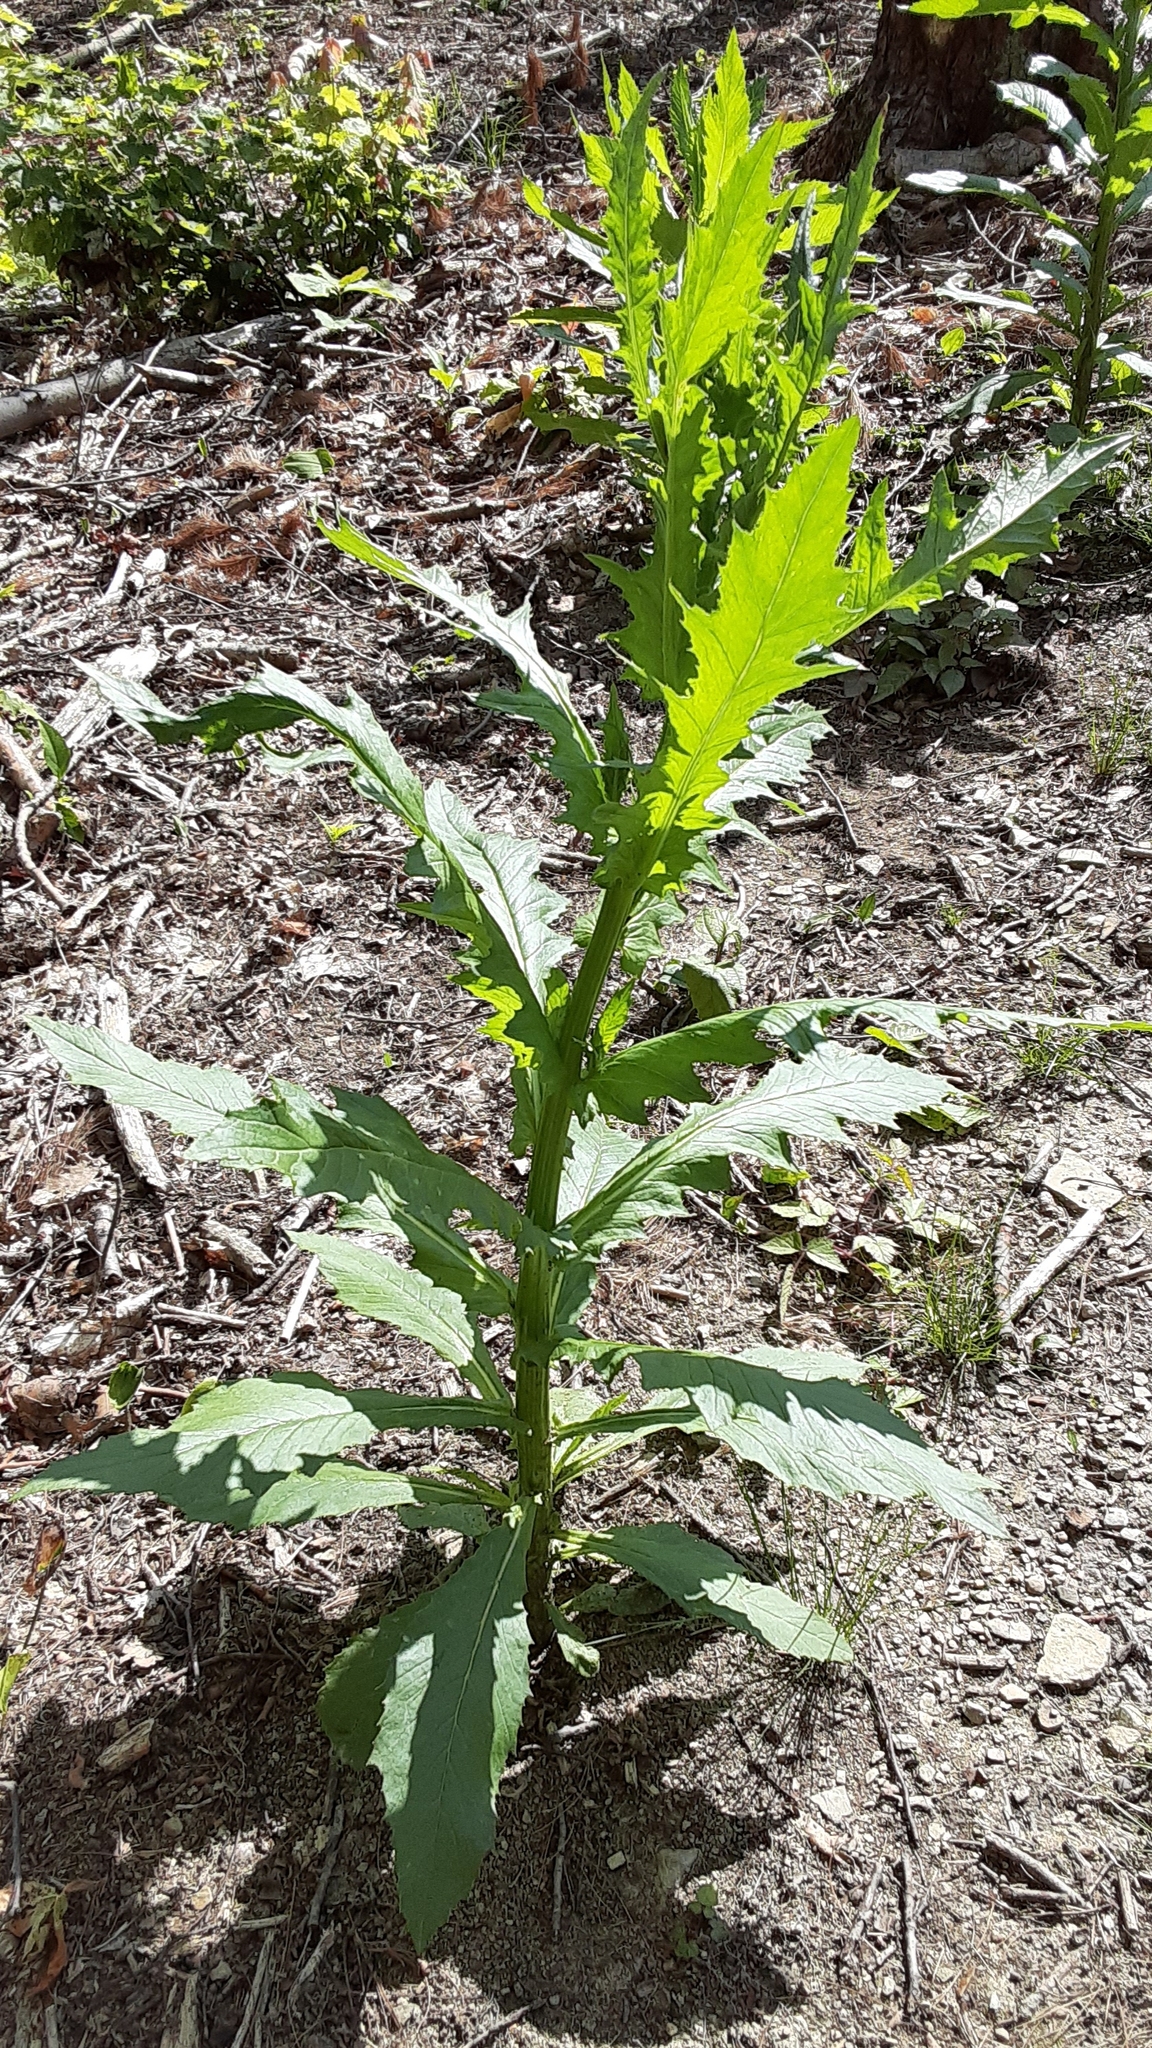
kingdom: Plantae
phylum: Tracheophyta
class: Magnoliopsida
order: Asterales
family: Asteraceae
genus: Erechtites
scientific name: Erechtites hieraciifolius
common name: American burnweed
